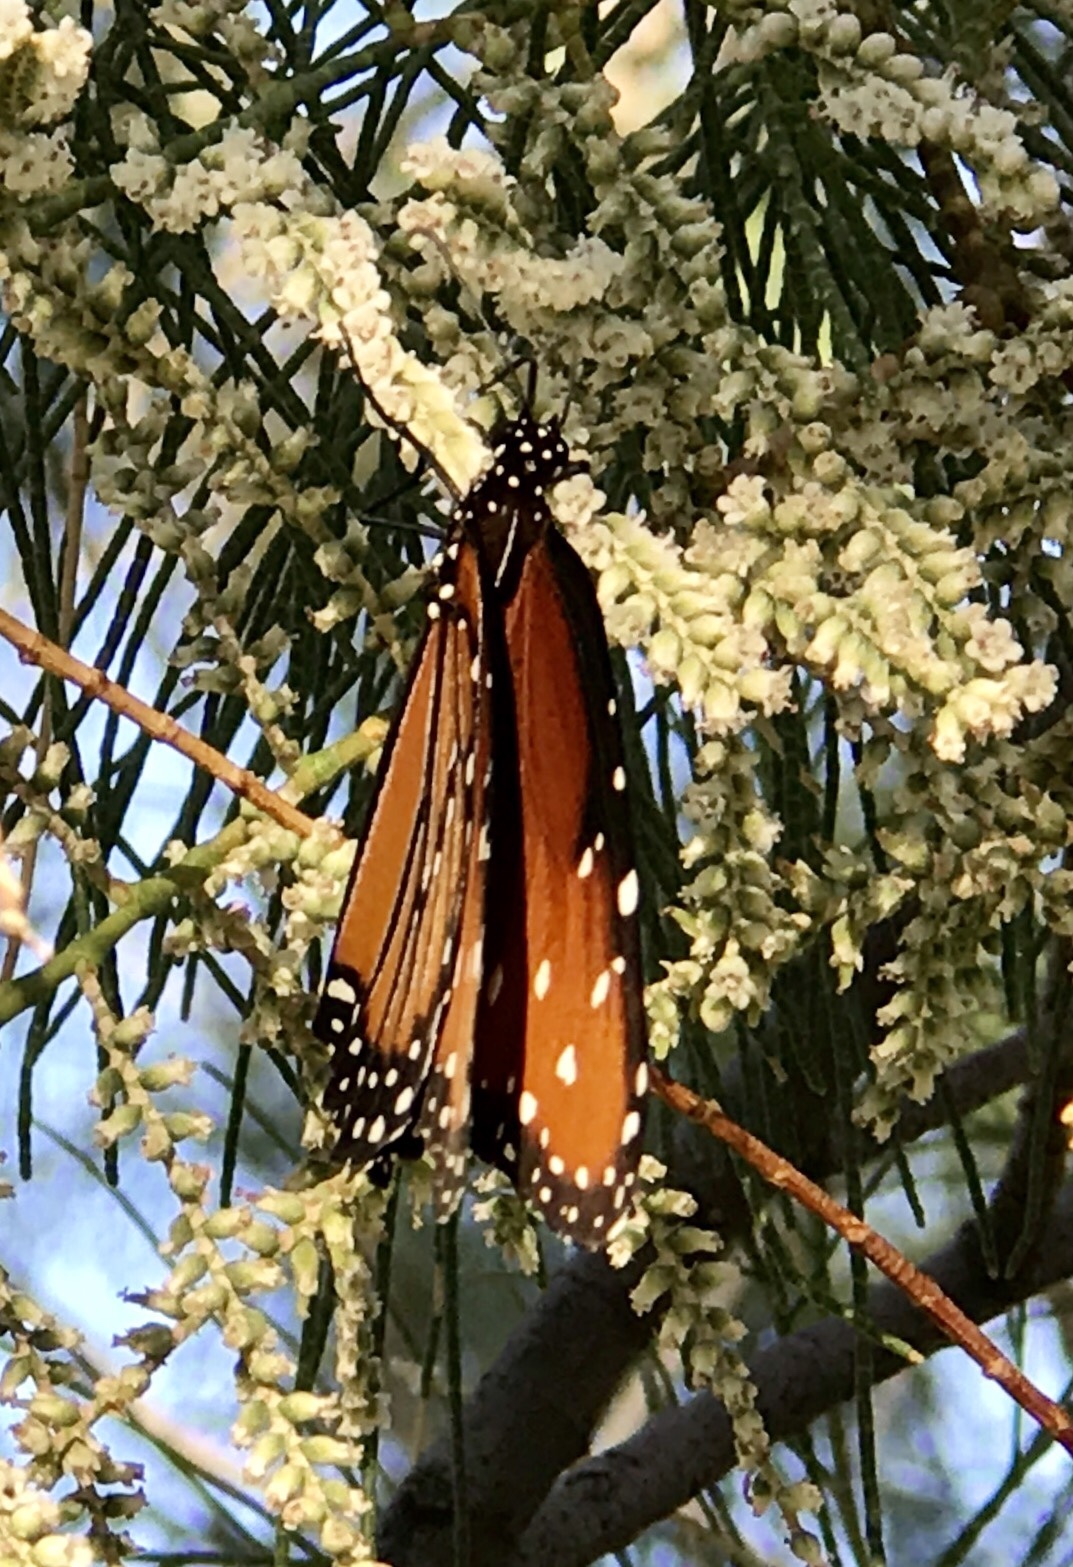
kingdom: Animalia
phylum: Arthropoda
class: Insecta
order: Lepidoptera
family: Nymphalidae
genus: Danaus
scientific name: Danaus gilippus
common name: Queen
